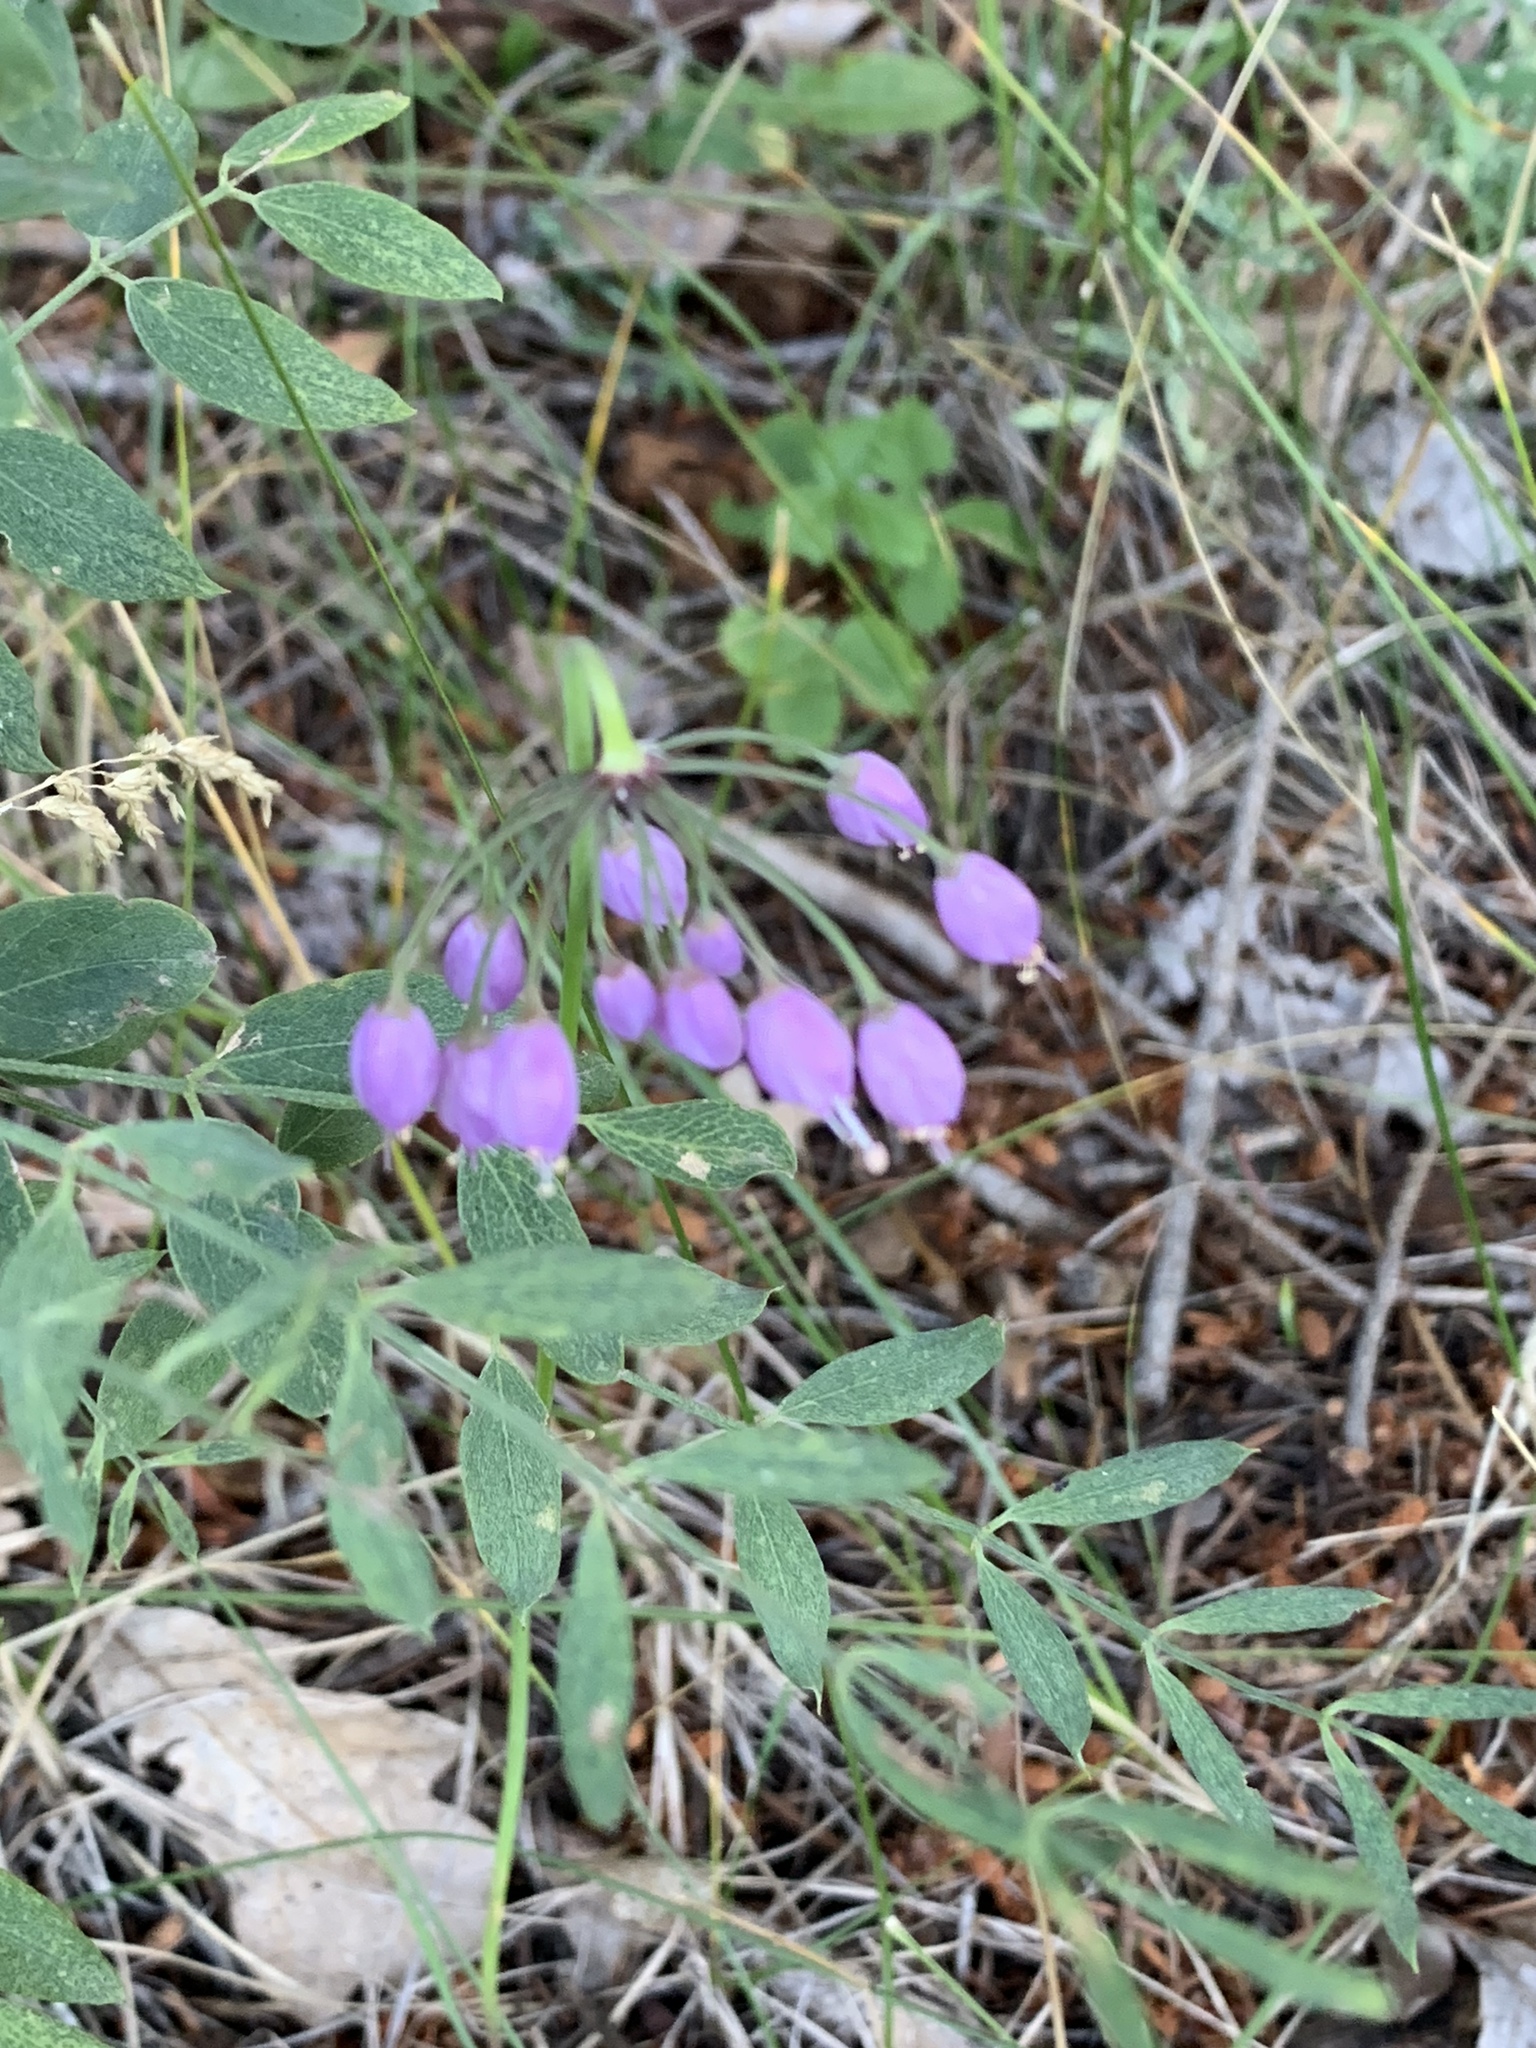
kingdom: Plantae
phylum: Tracheophyta
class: Liliopsida
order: Asparagales
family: Amaryllidaceae
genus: Allium
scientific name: Allium cernuum
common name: Nodding onion
